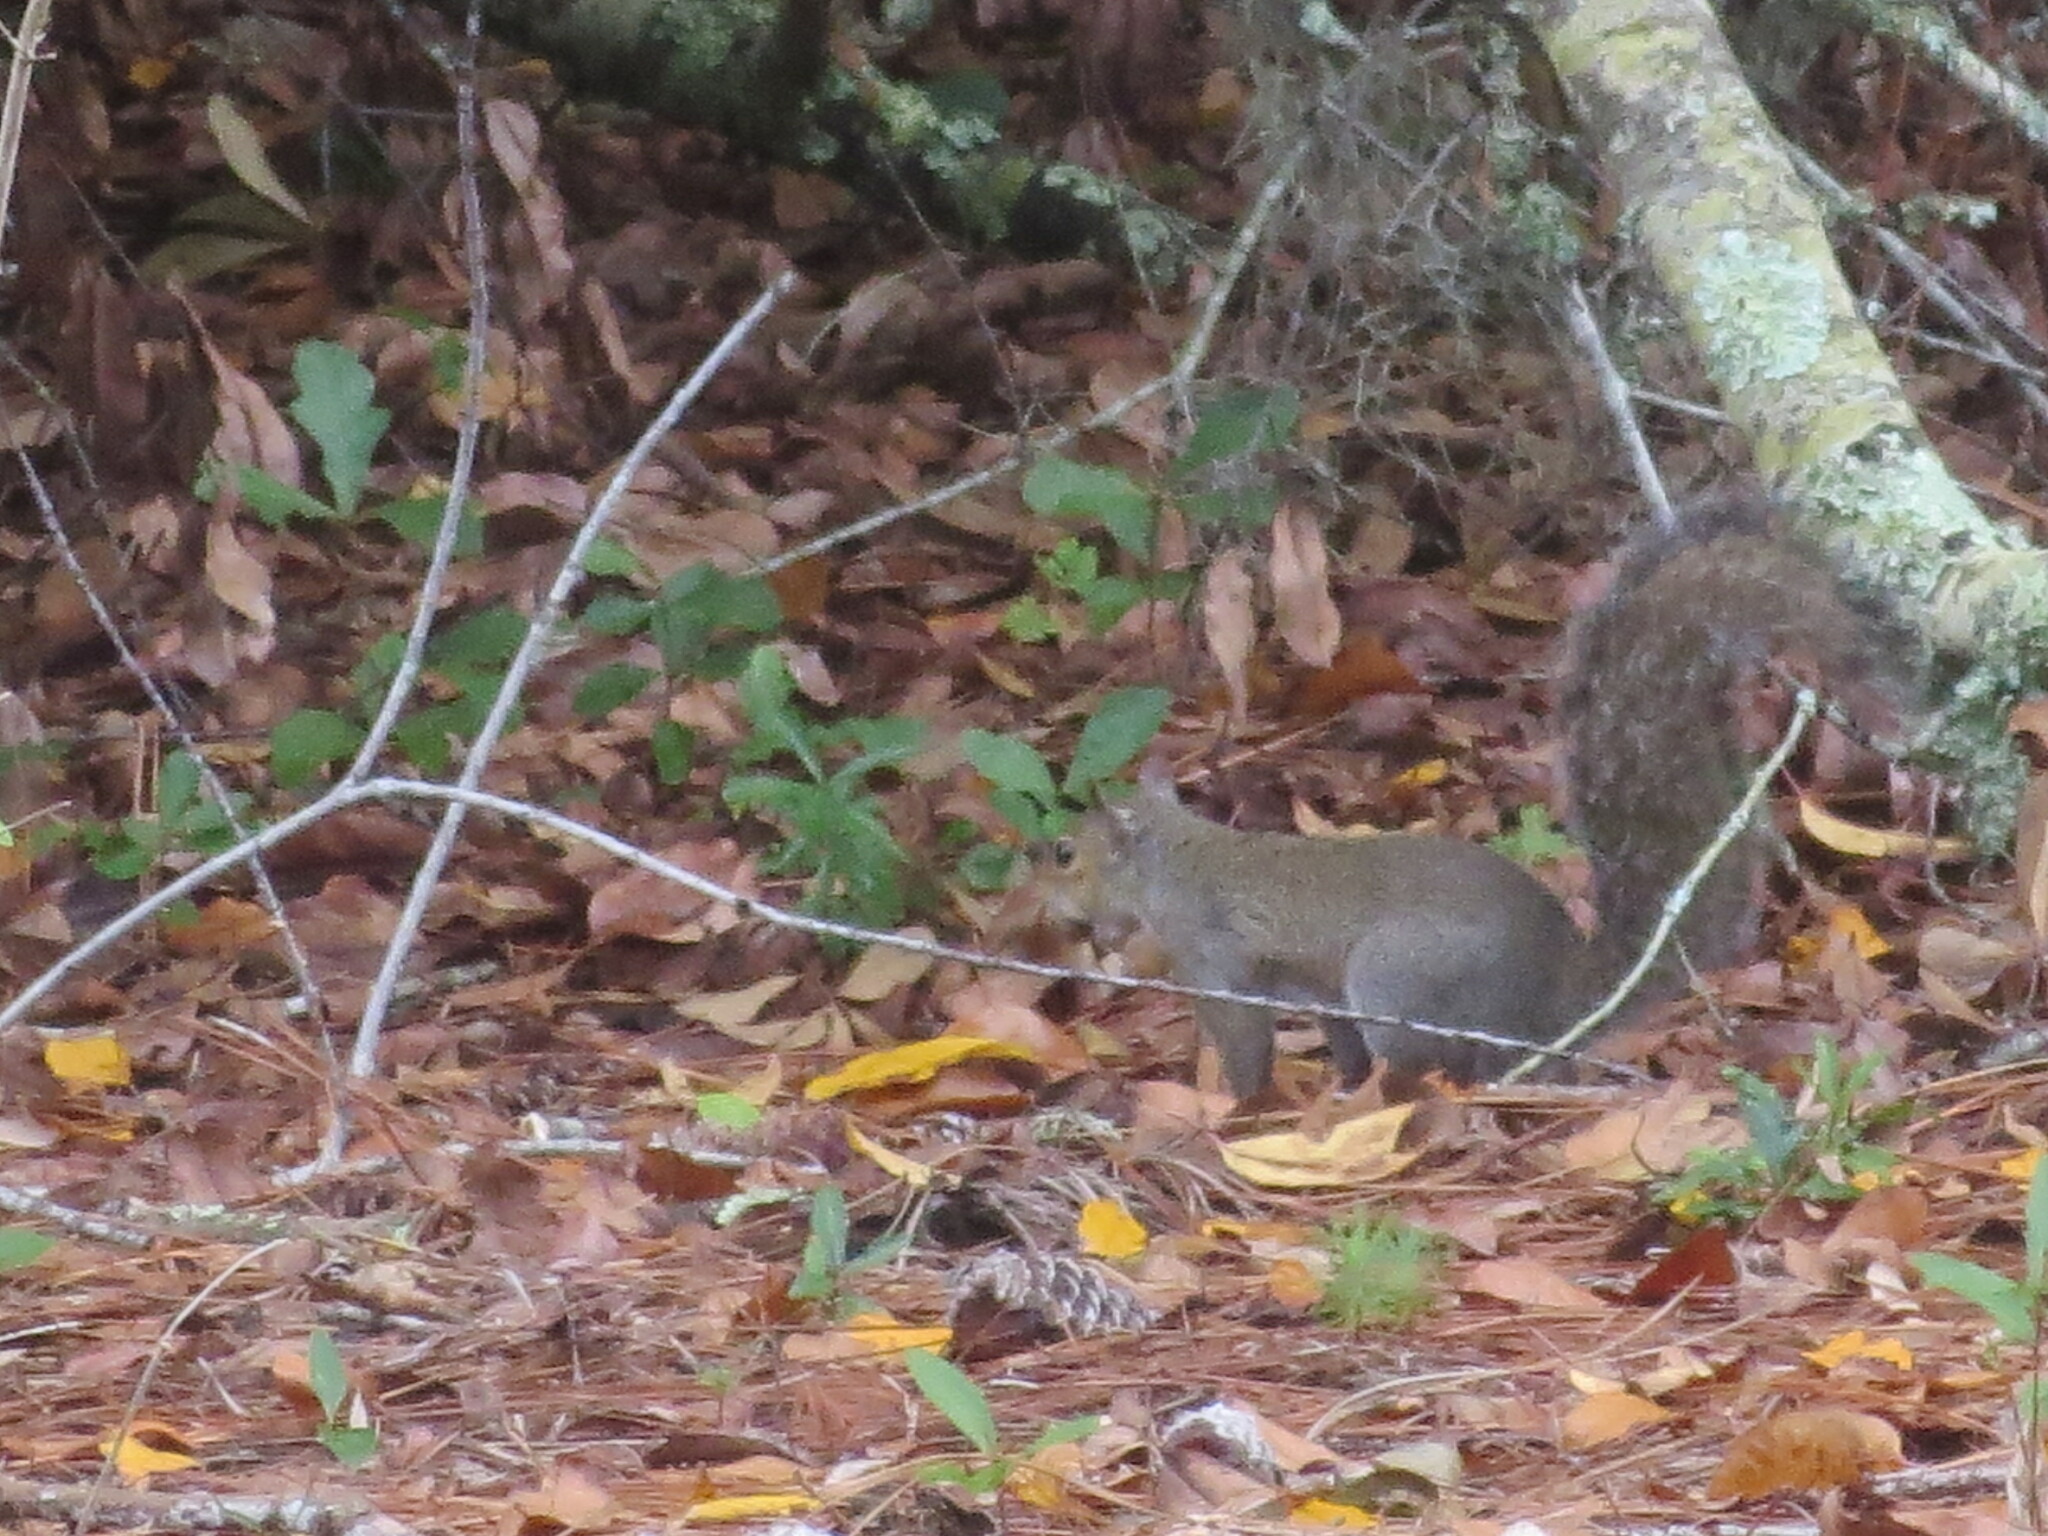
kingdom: Animalia
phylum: Chordata
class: Mammalia
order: Rodentia
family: Sciuridae
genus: Sciurus
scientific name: Sciurus carolinensis
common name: Eastern gray squirrel
